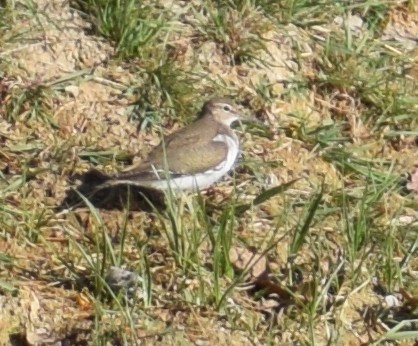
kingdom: Animalia
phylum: Chordata
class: Aves
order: Charadriiformes
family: Scolopacidae
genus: Actitis
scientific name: Actitis hypoleucos
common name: Common sandpiper
